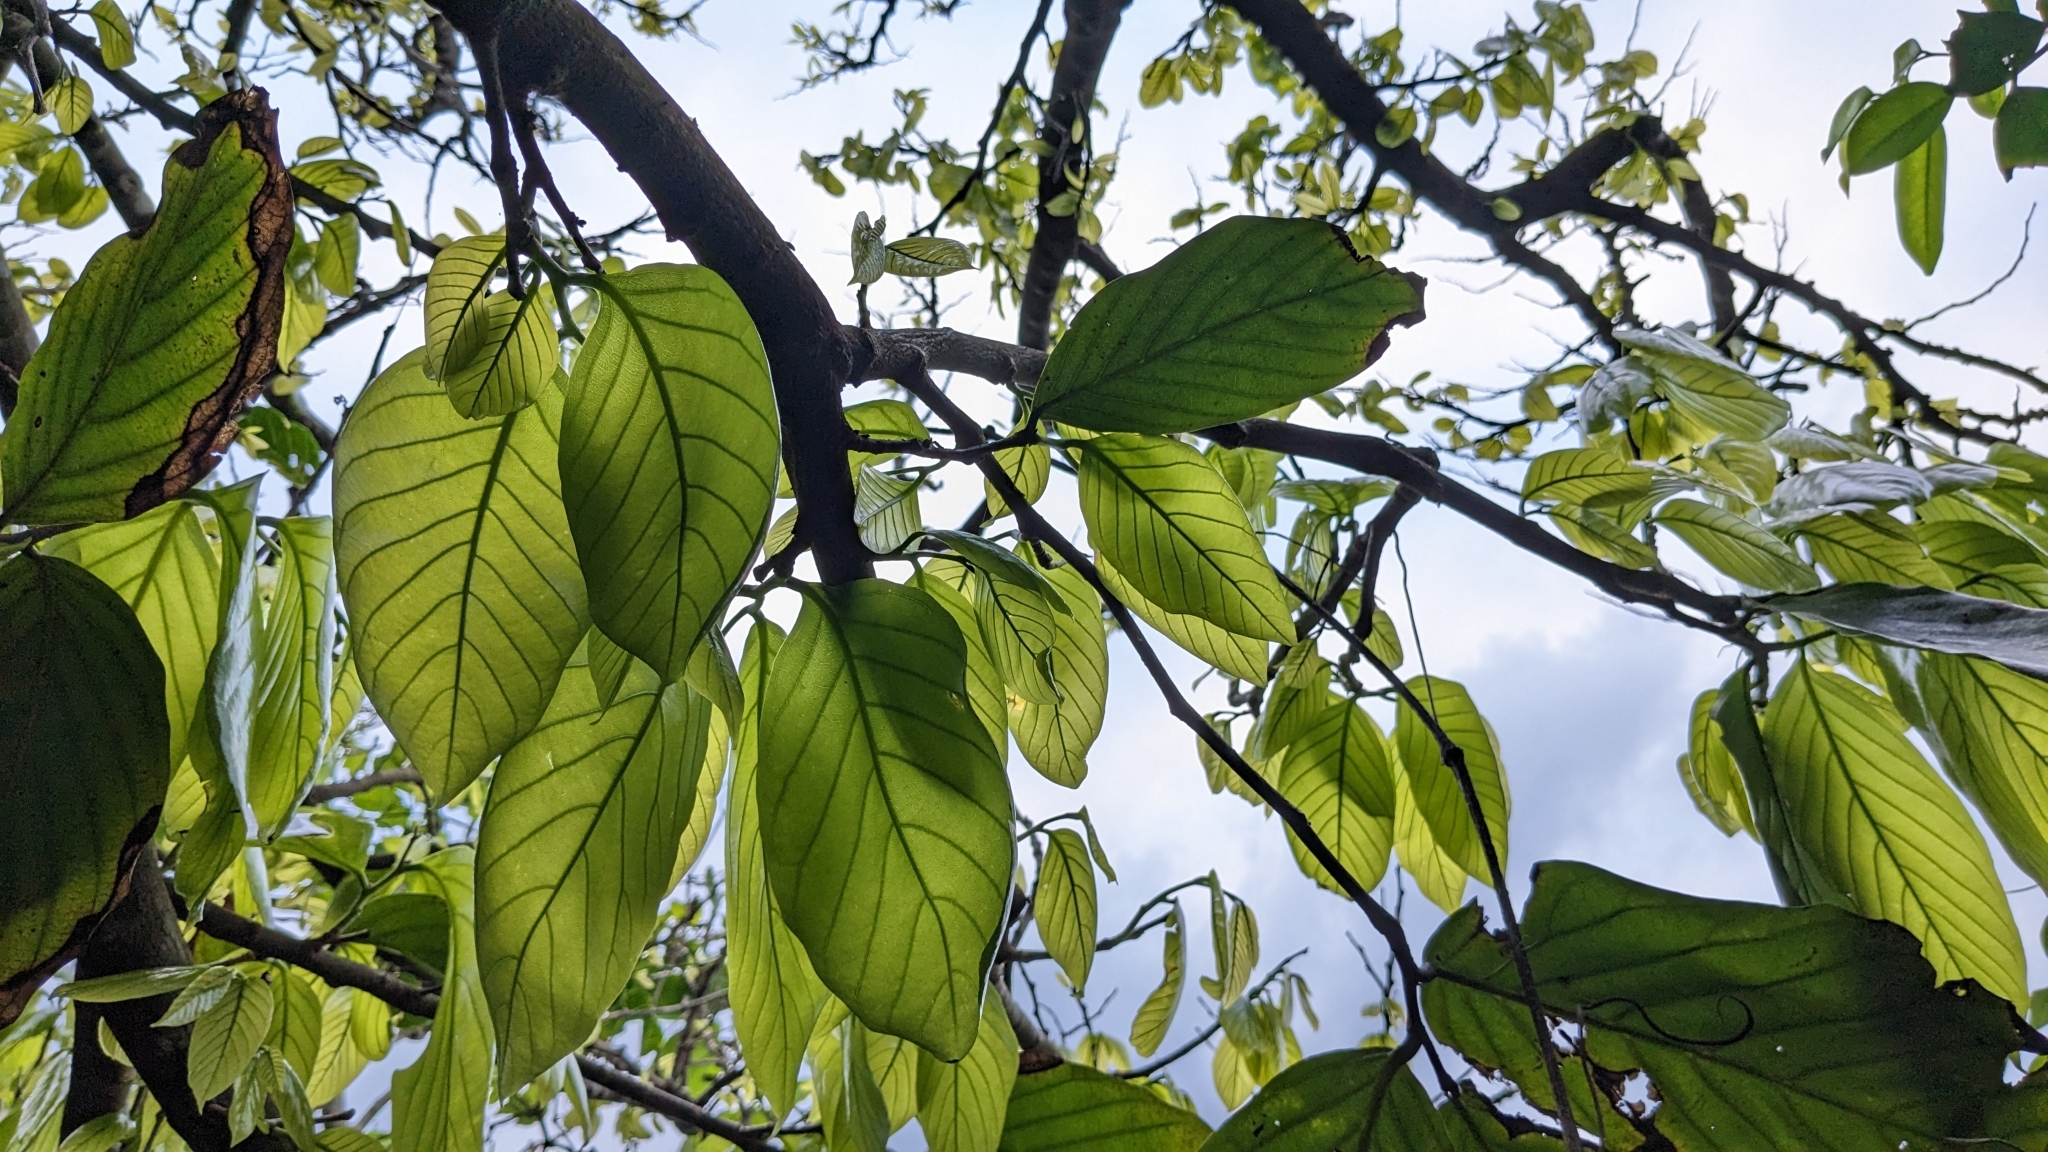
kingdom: Plantae
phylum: Tracheophyta
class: Magnoliopsida
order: Magnoliales
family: Annonaceae
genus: Polyalthia
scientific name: Polyalthia liukiuensis
